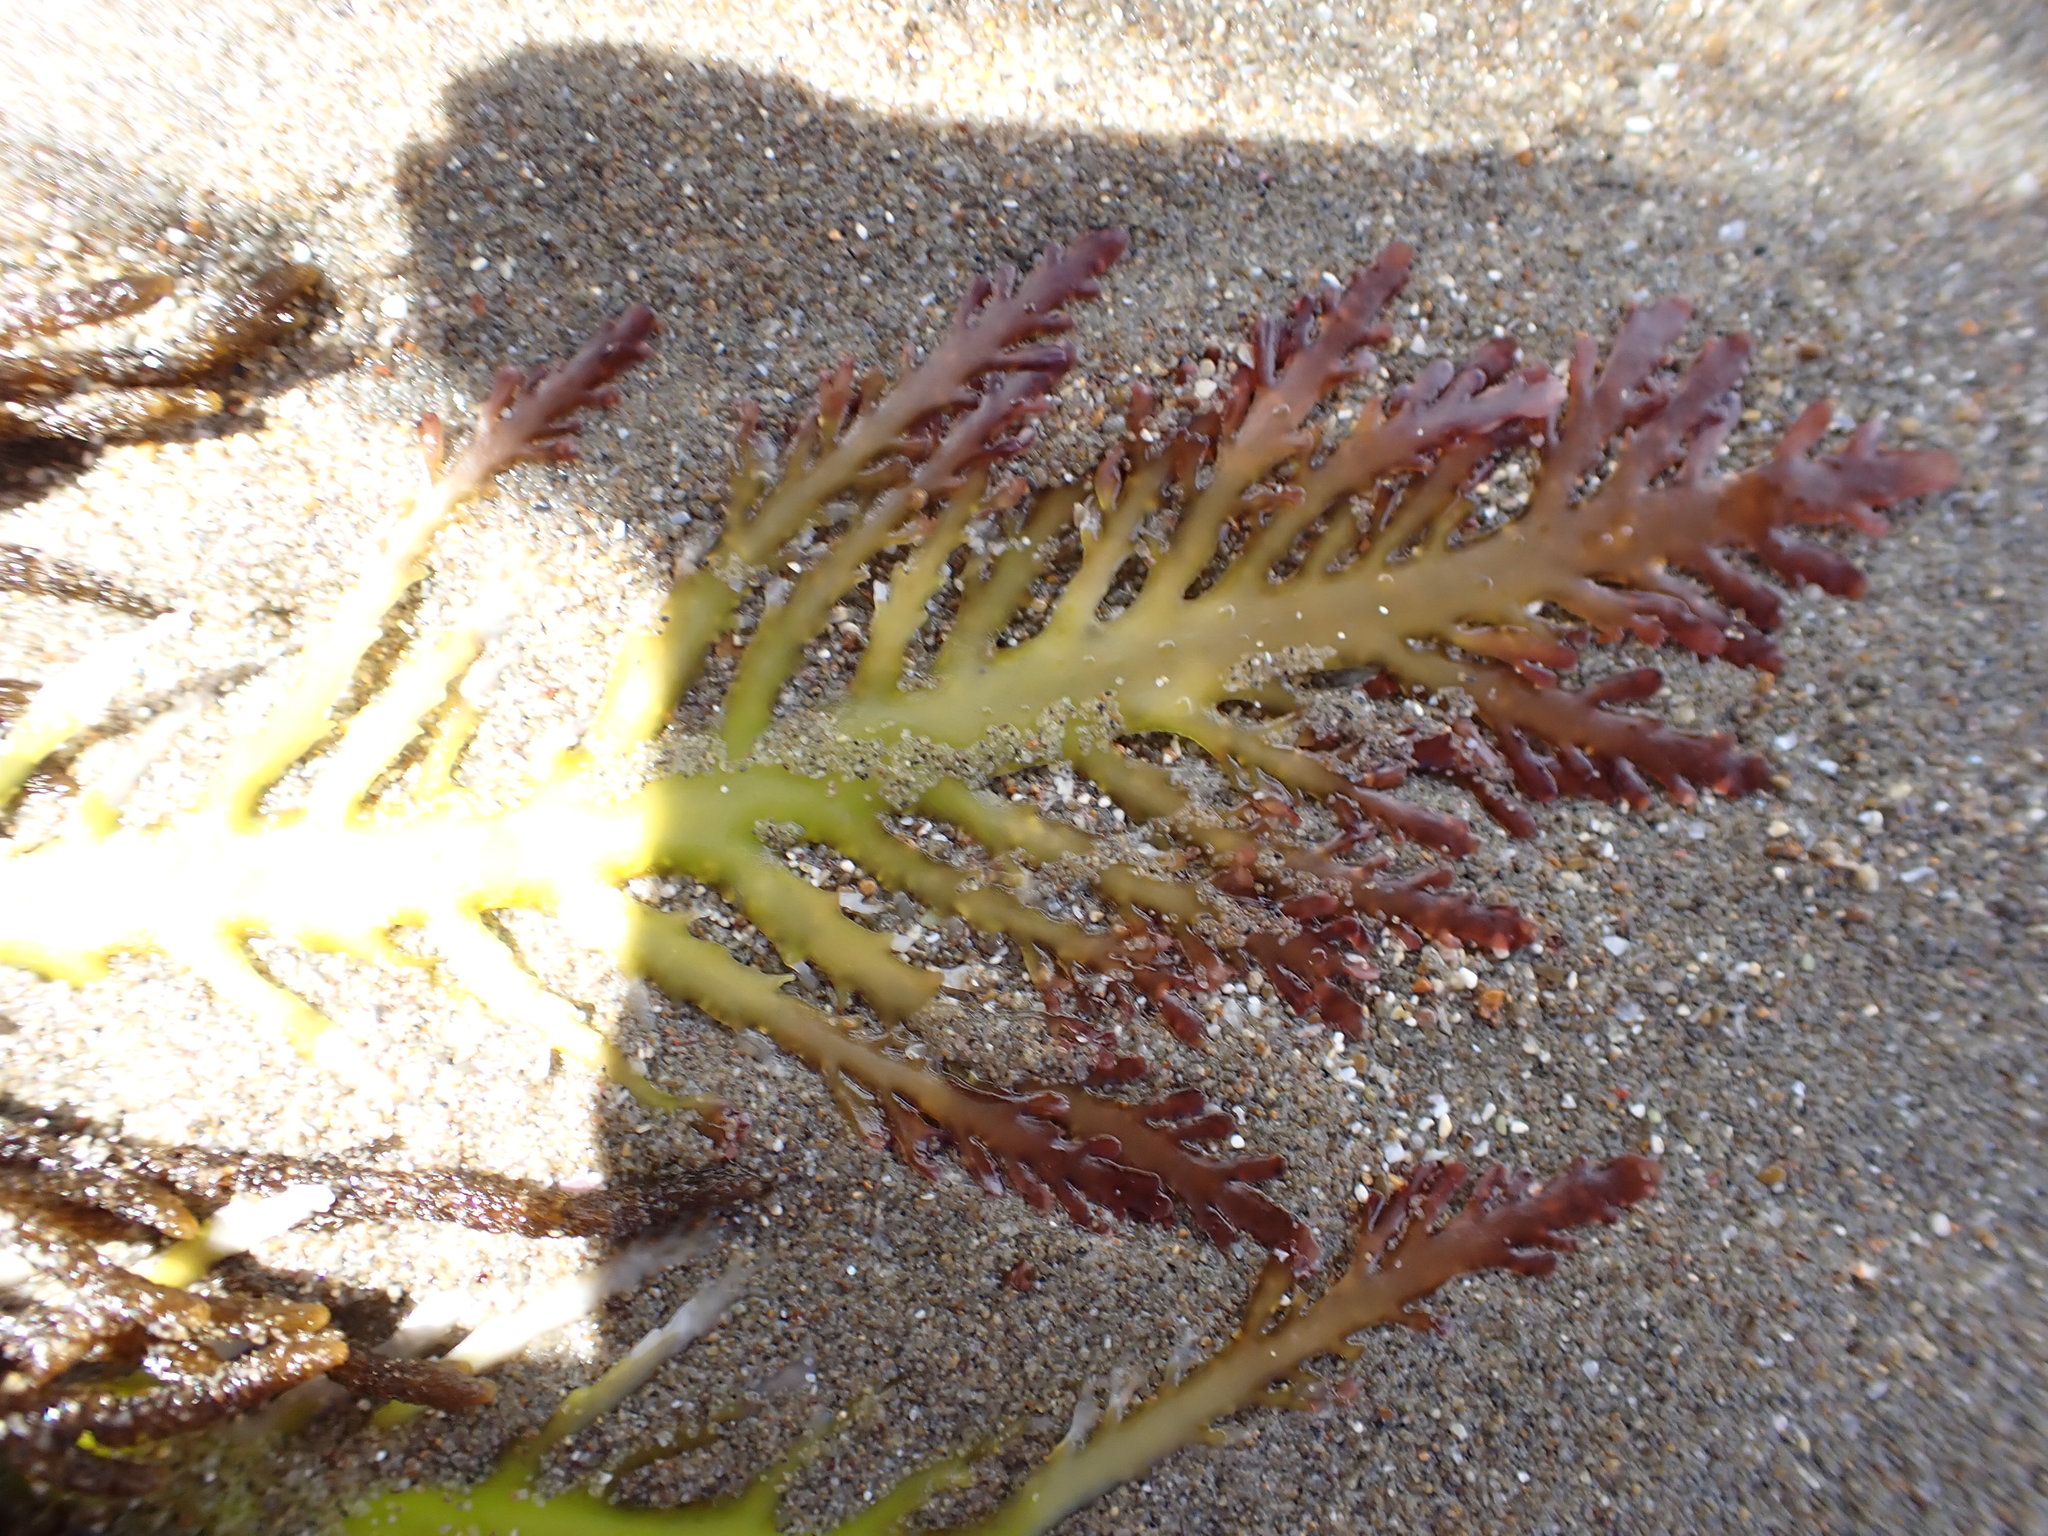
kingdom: Plantae
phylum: Rhodophyta
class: Florideophyceae
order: Gelidiales
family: Pterocladiaceae
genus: Pterocladia
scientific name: Pterocladia lucida
